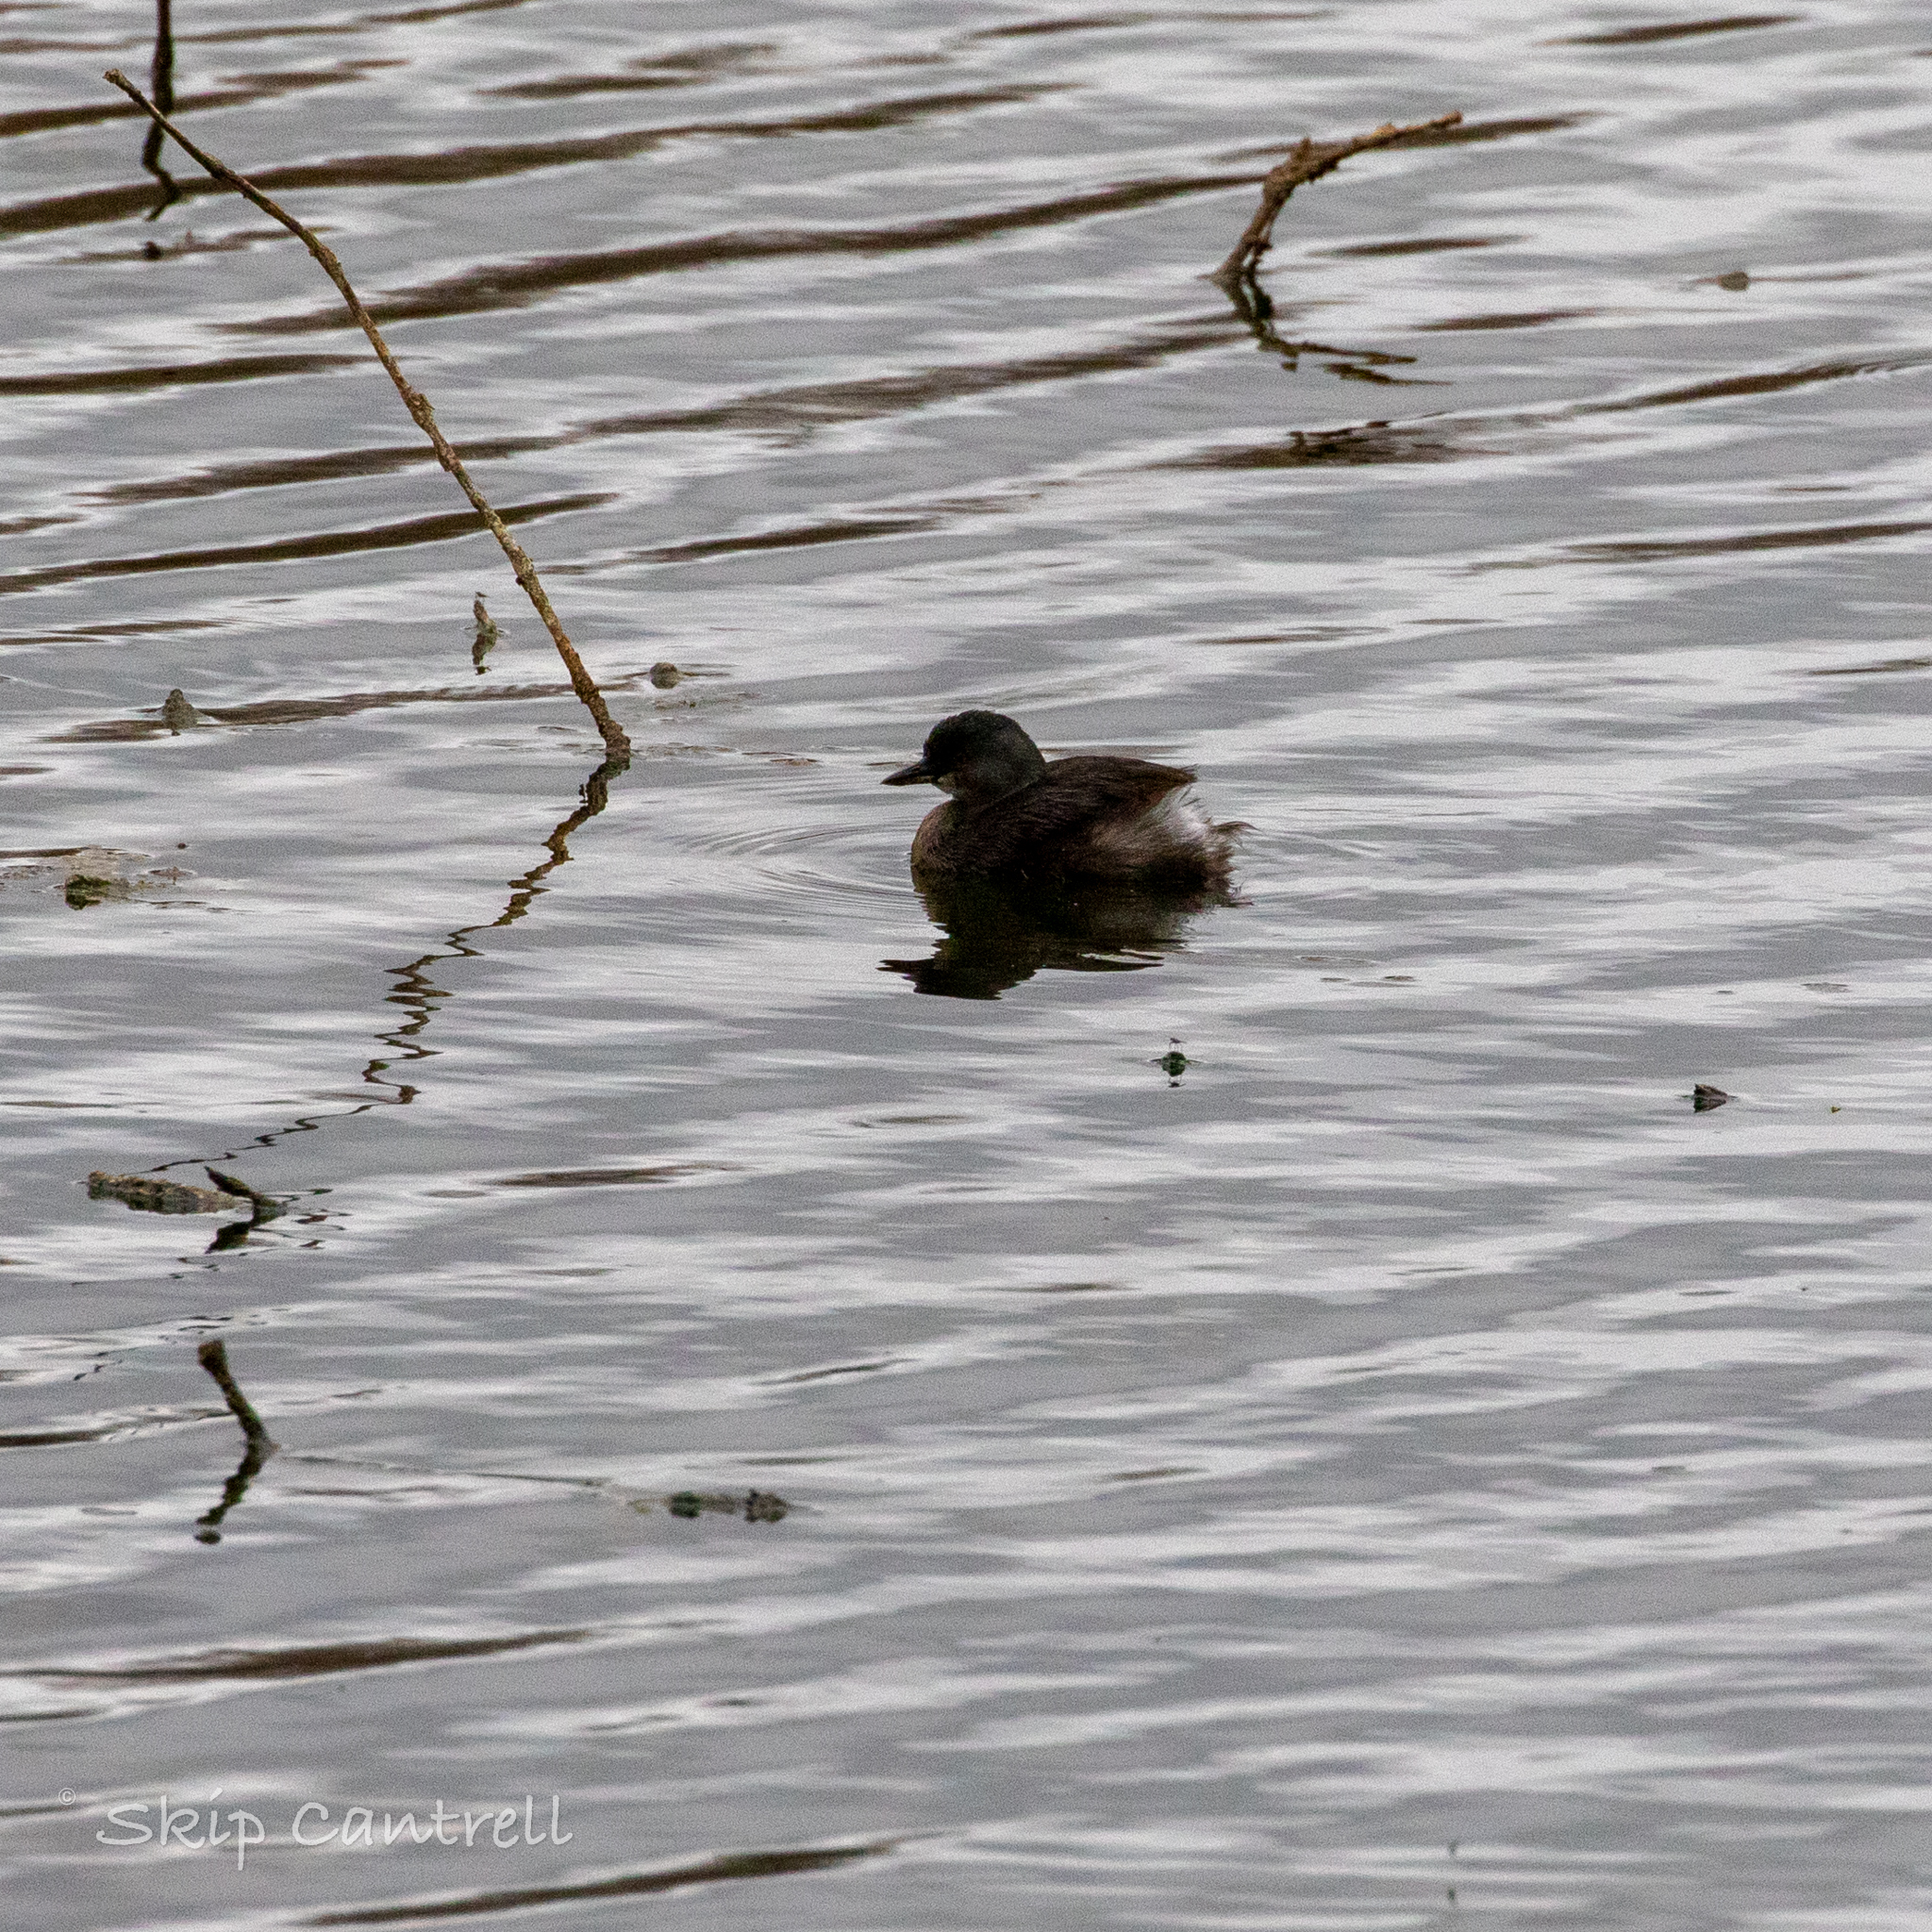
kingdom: Animalia
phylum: Chordata
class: Aves
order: Podicipediformes
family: Podicipedidae
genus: Tachybaptus
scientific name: Tachybaptus dominicus
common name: Least grebe
